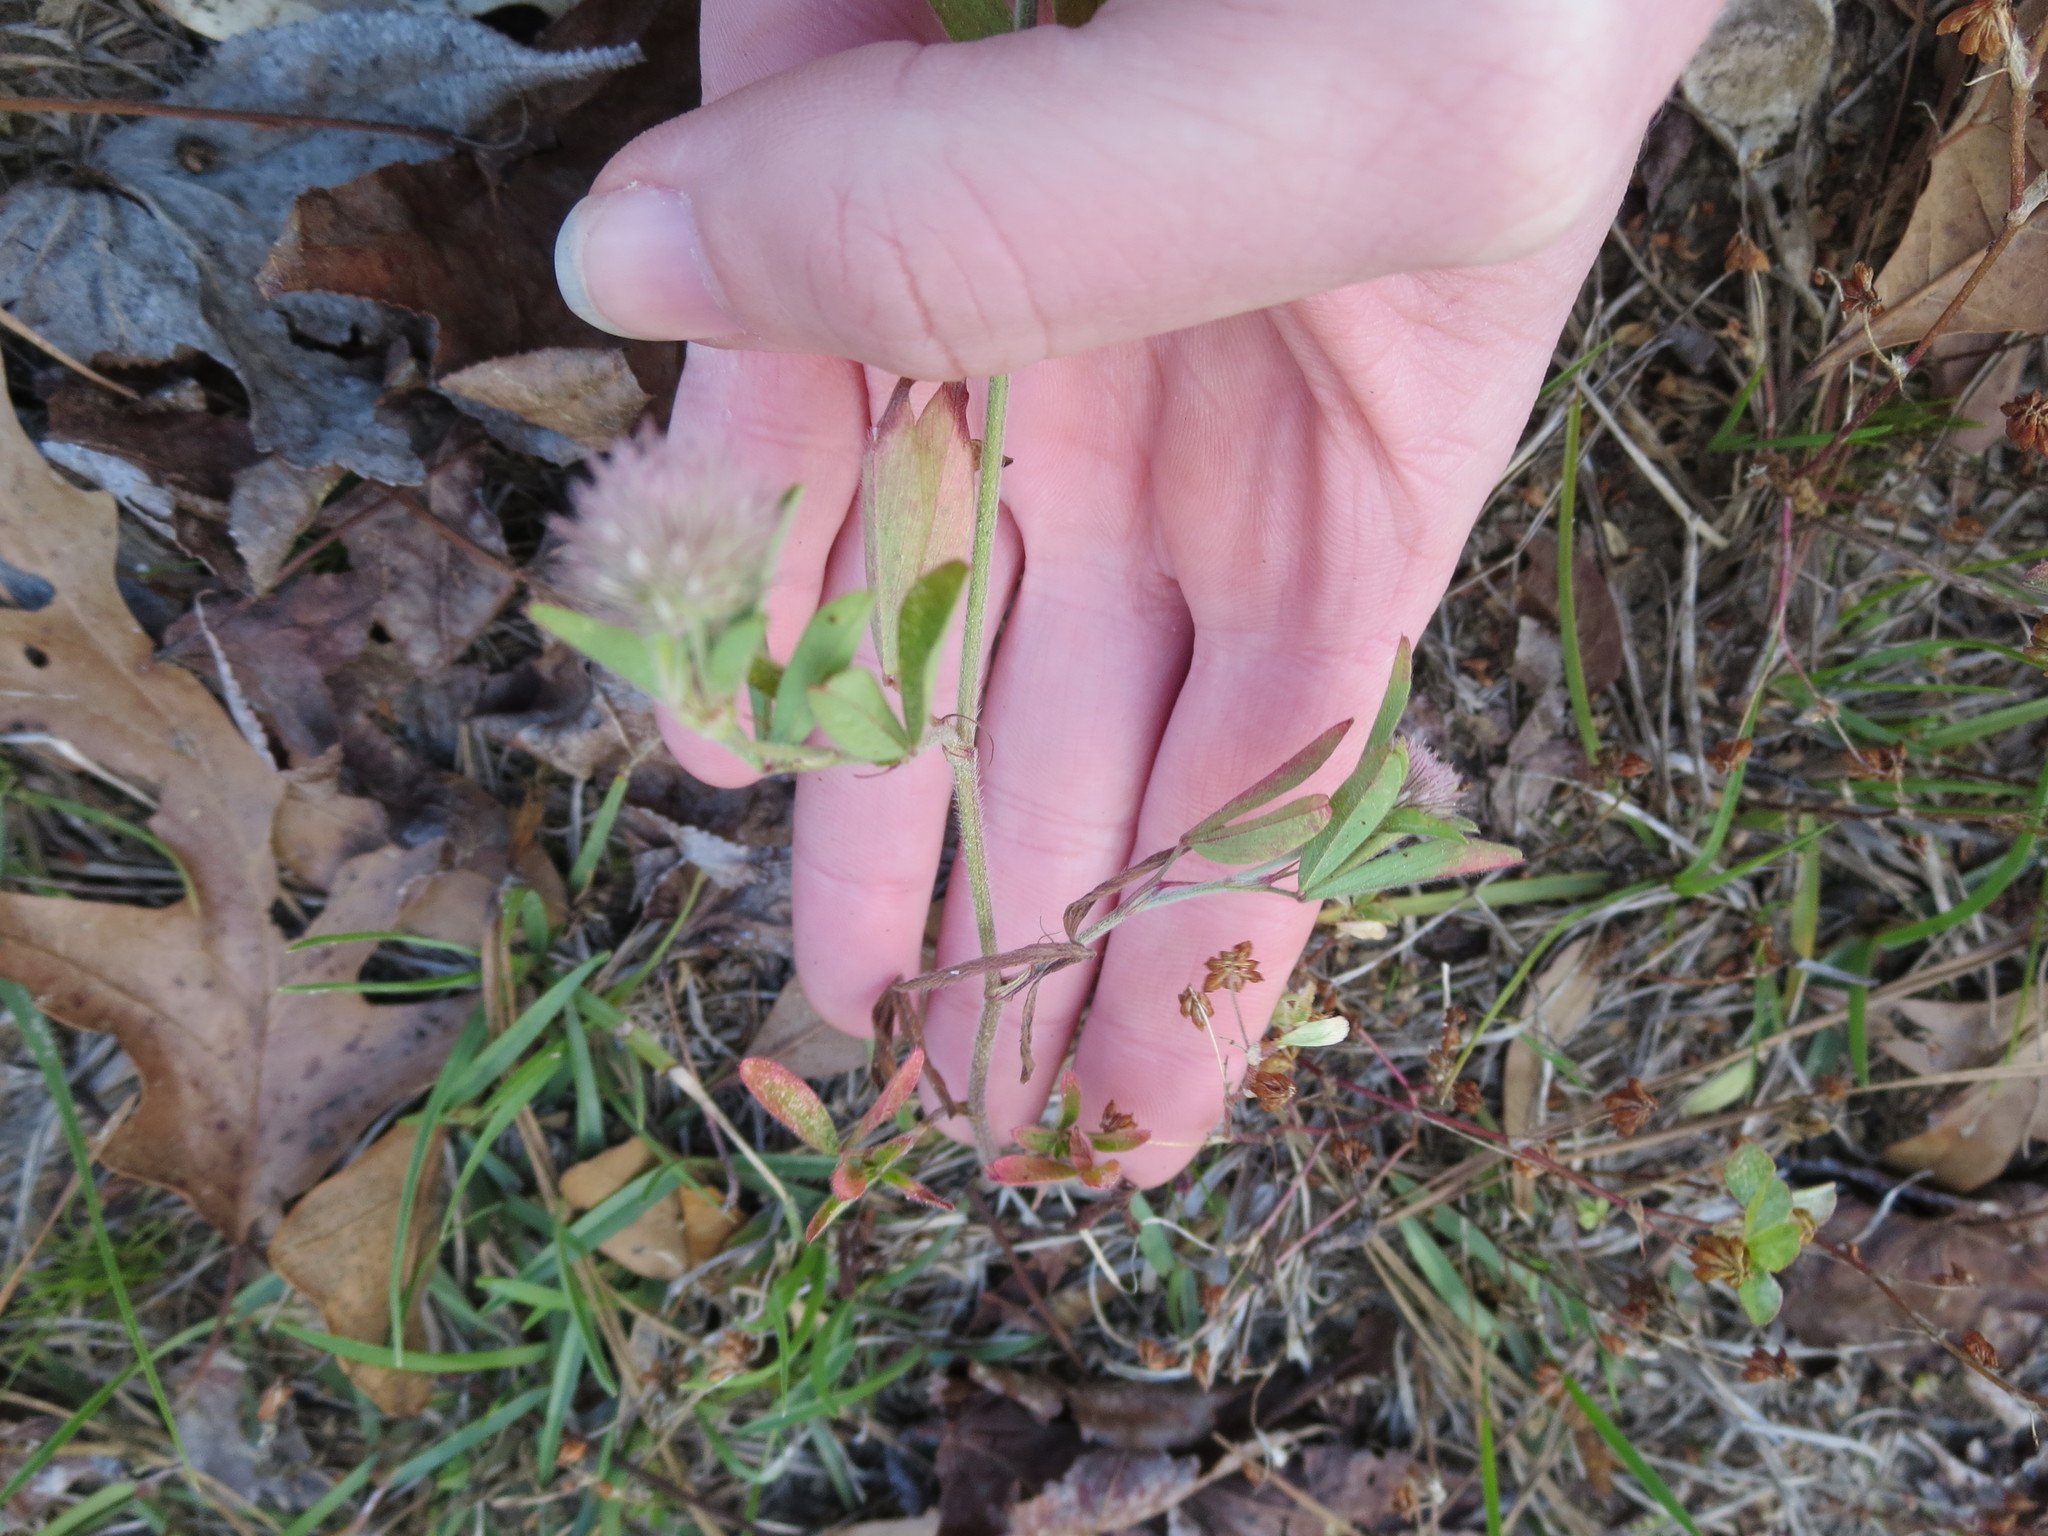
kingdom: Plantae
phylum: Tracheophyta
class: Magnoliopsida
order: Fabales
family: Fabaceae
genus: Trifolium
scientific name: Trifolium arvense
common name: Hare's-foot clover
